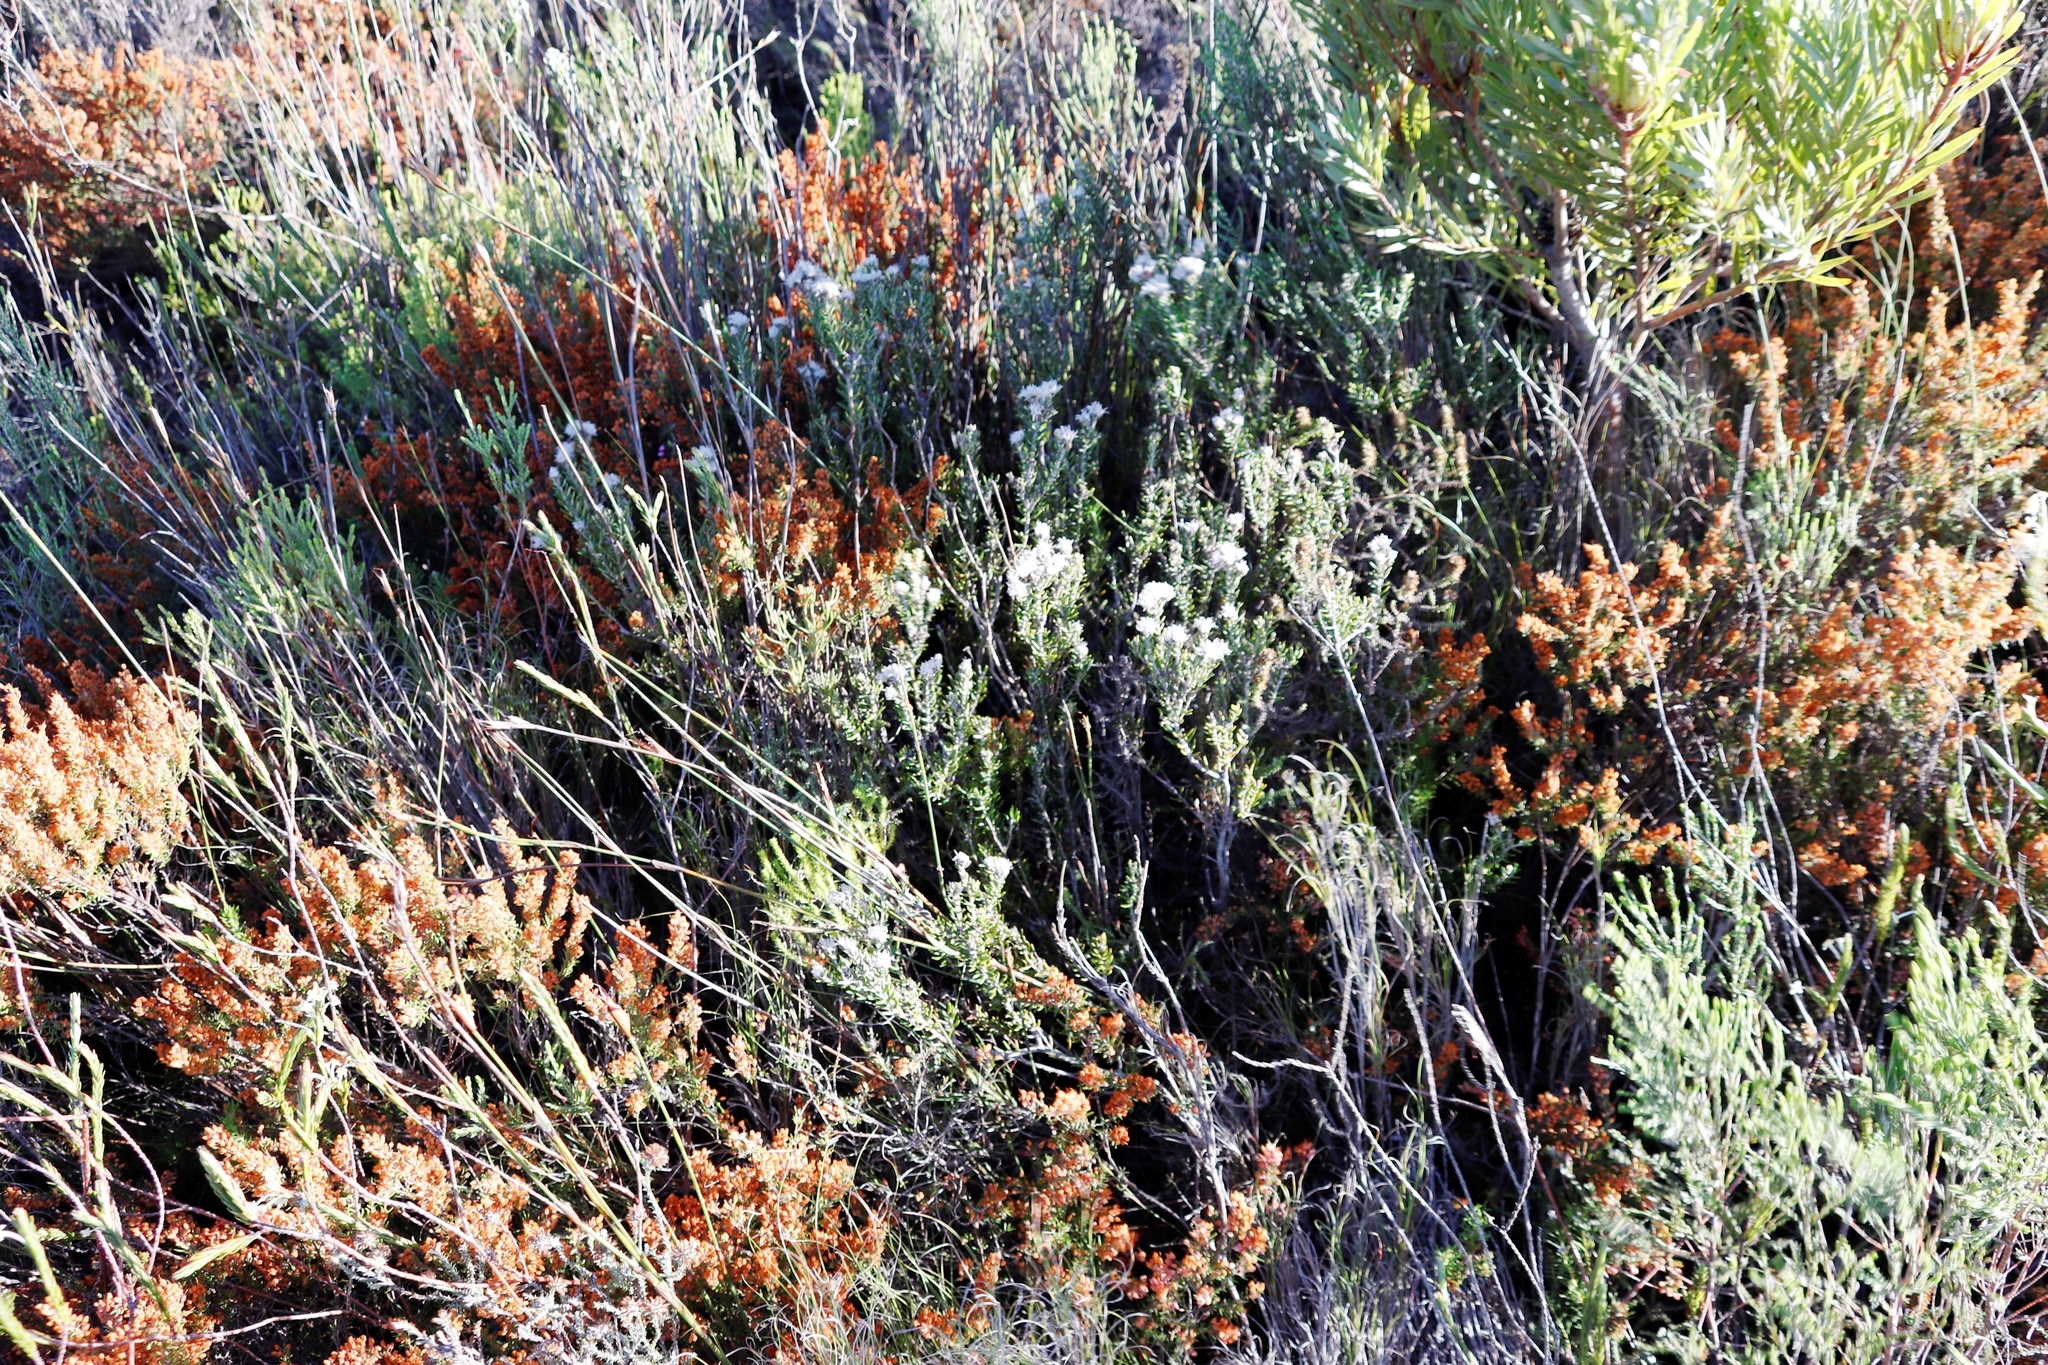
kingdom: Plantae
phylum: Tracheophyta
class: Magnoliopsida
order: Rosales
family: Rhamnaceae
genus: Trichocephalus
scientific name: Trichocephalus stipularis
